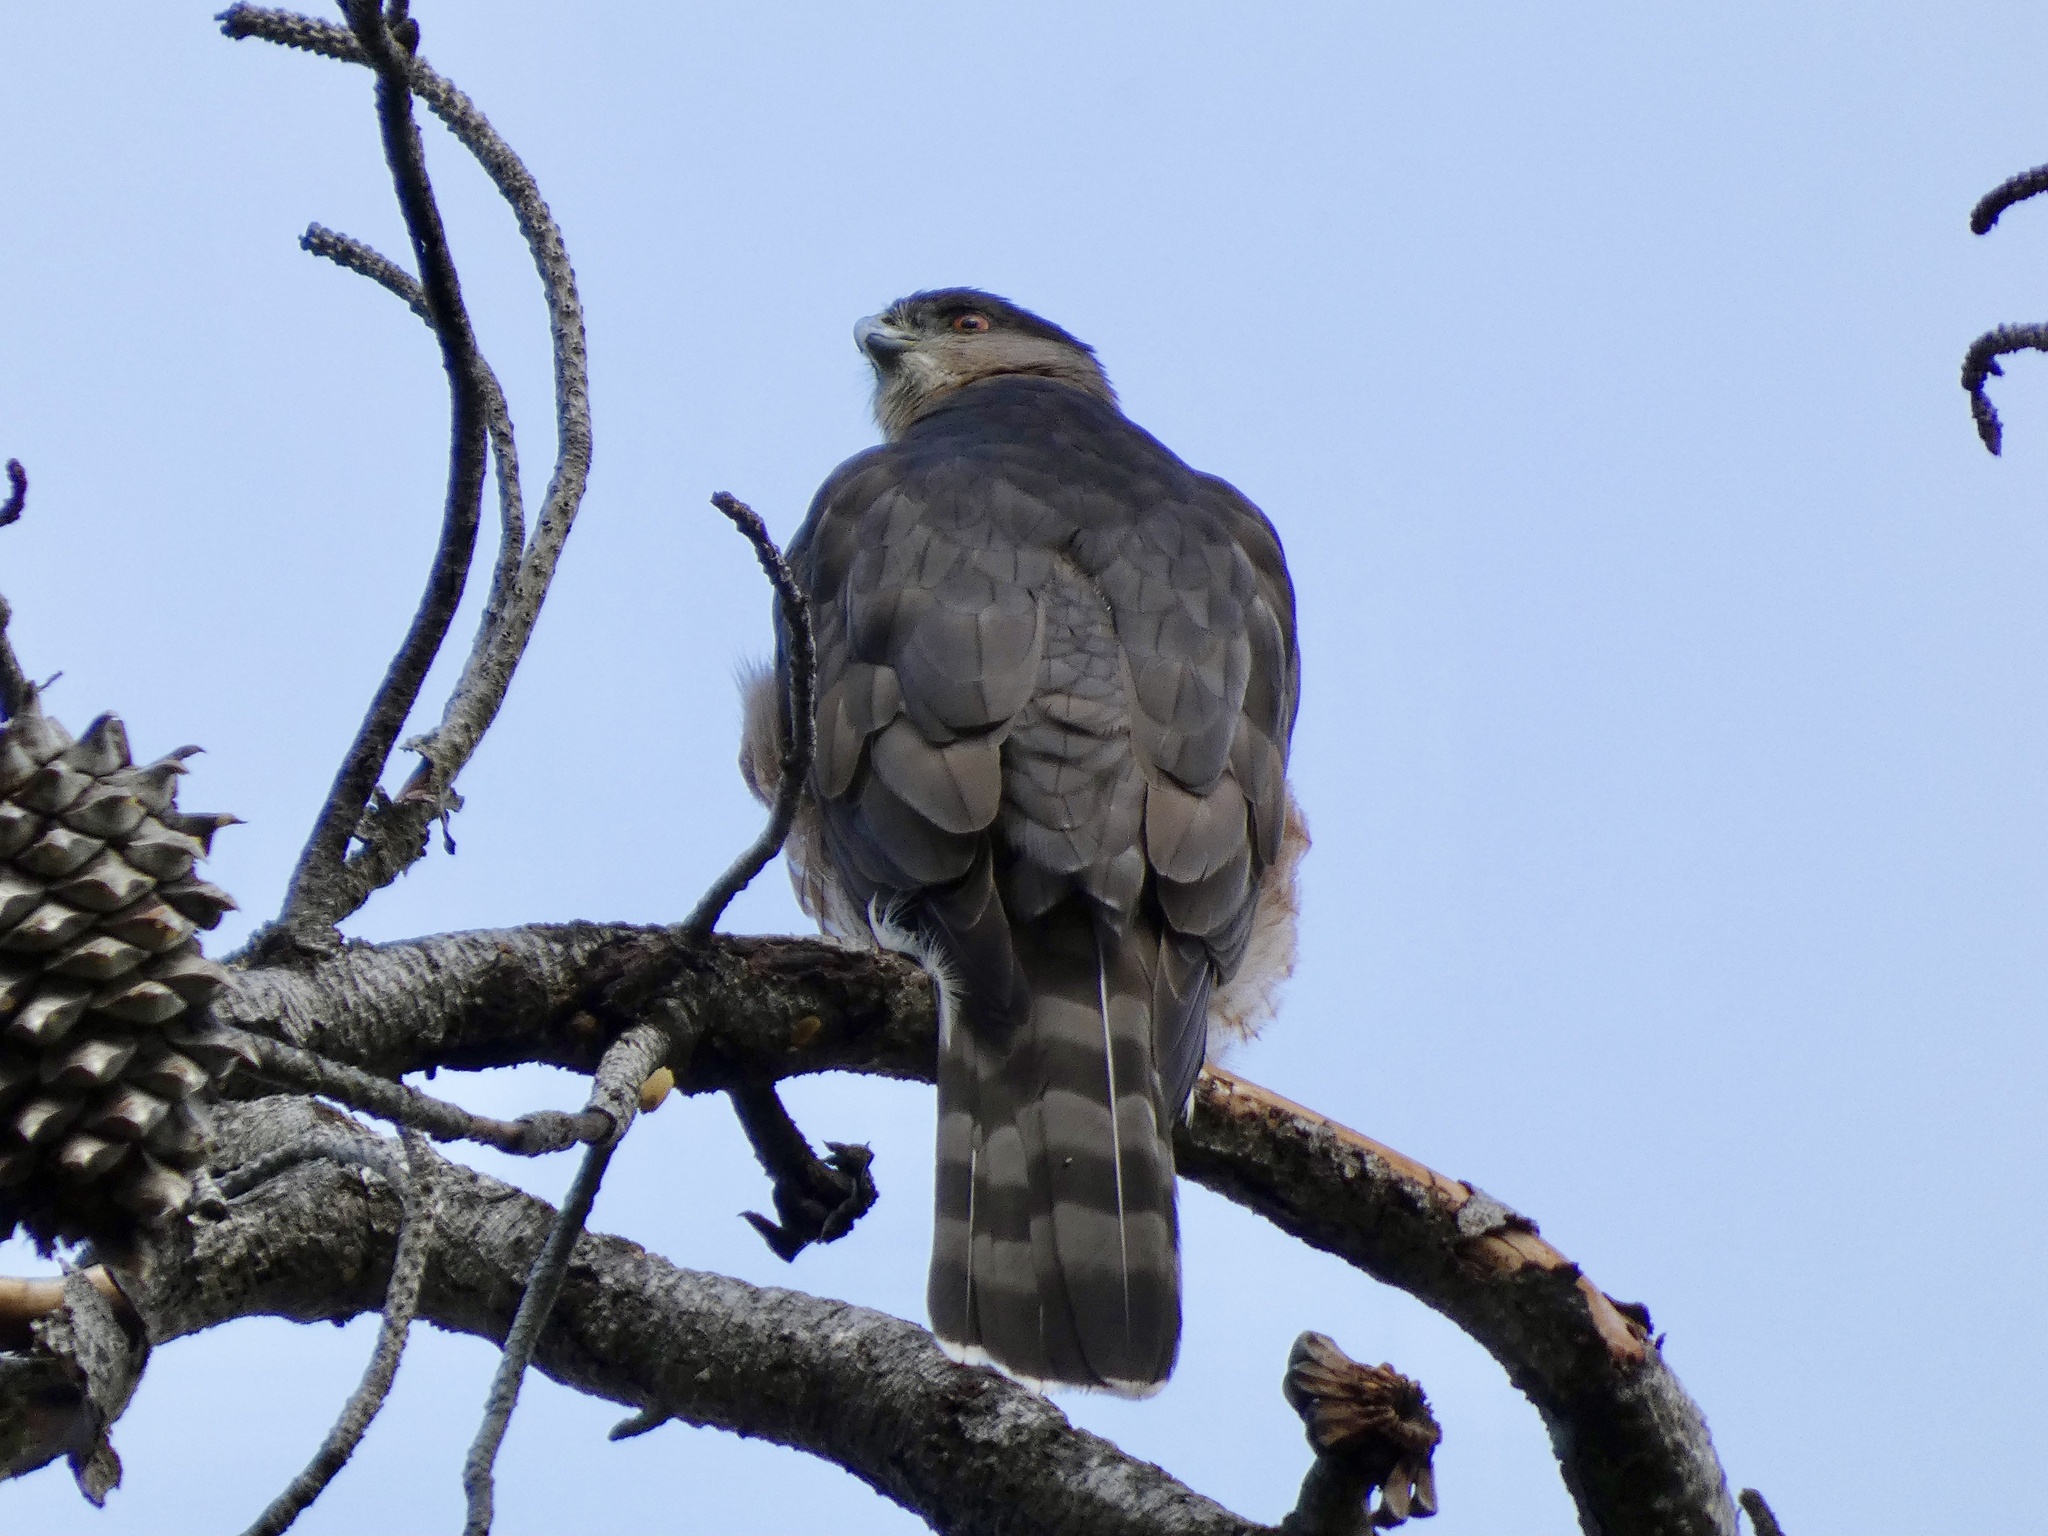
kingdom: Animalia
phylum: Chordata
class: Aves
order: Accipitriformes
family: Accipitridae
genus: Accipiter
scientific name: Accipiter cooperii
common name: Cooper's hawk
